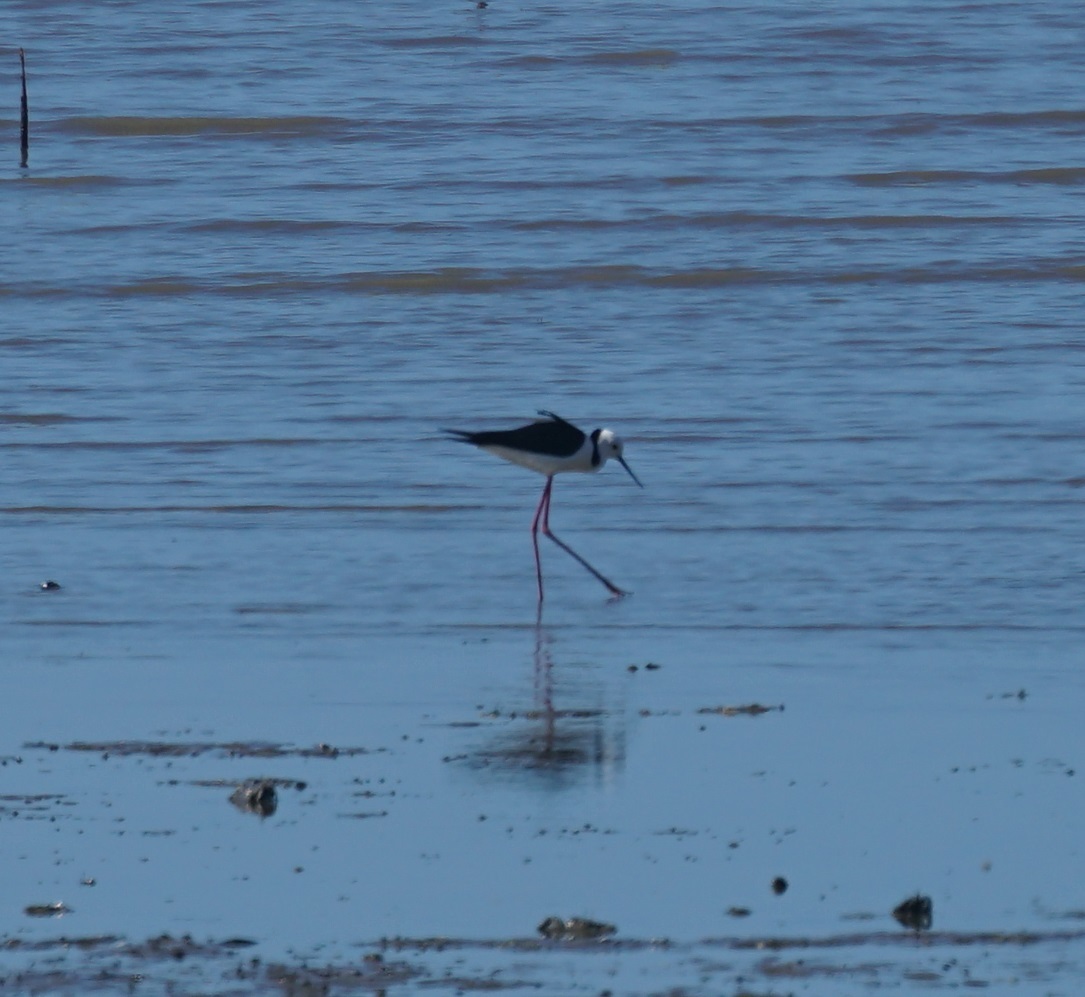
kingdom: Animalia
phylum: Chordata
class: Aves
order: Charadriiformes
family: Recurvirostridae
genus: Himantopus
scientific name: Himantopus leucocephalus
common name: White-headed stilt
